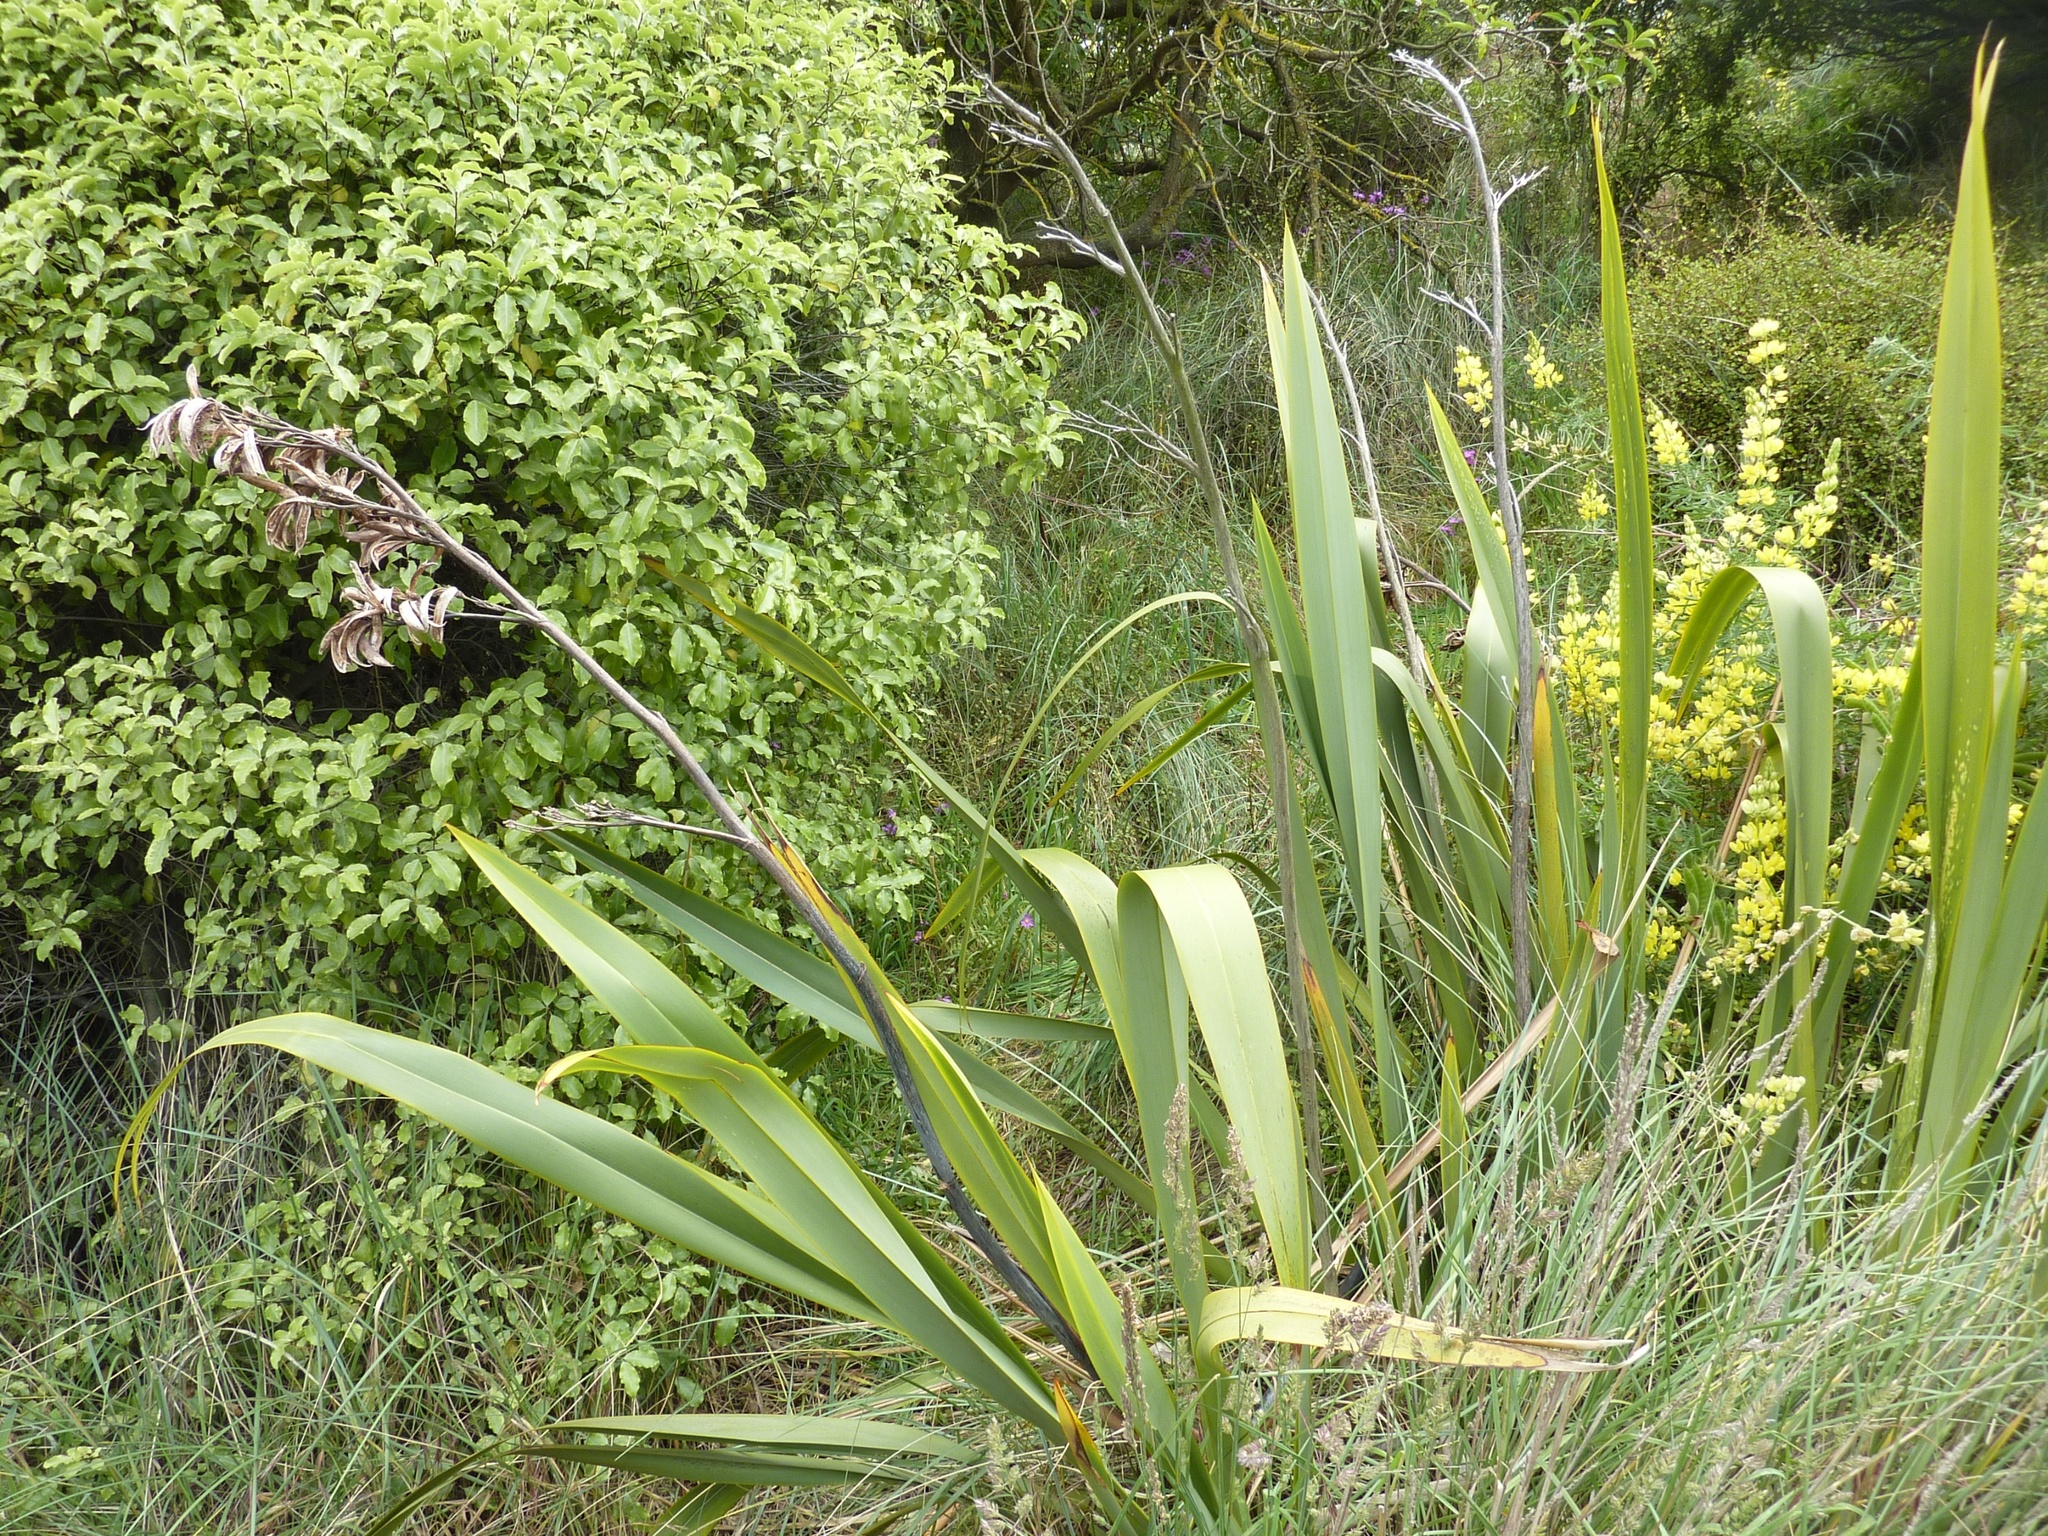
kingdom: Plantae
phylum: Tracheophyta
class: Liliopsida
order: Asparagales
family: Asphodelaceae
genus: Phormium
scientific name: Phormium tenax
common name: New zealand flax
